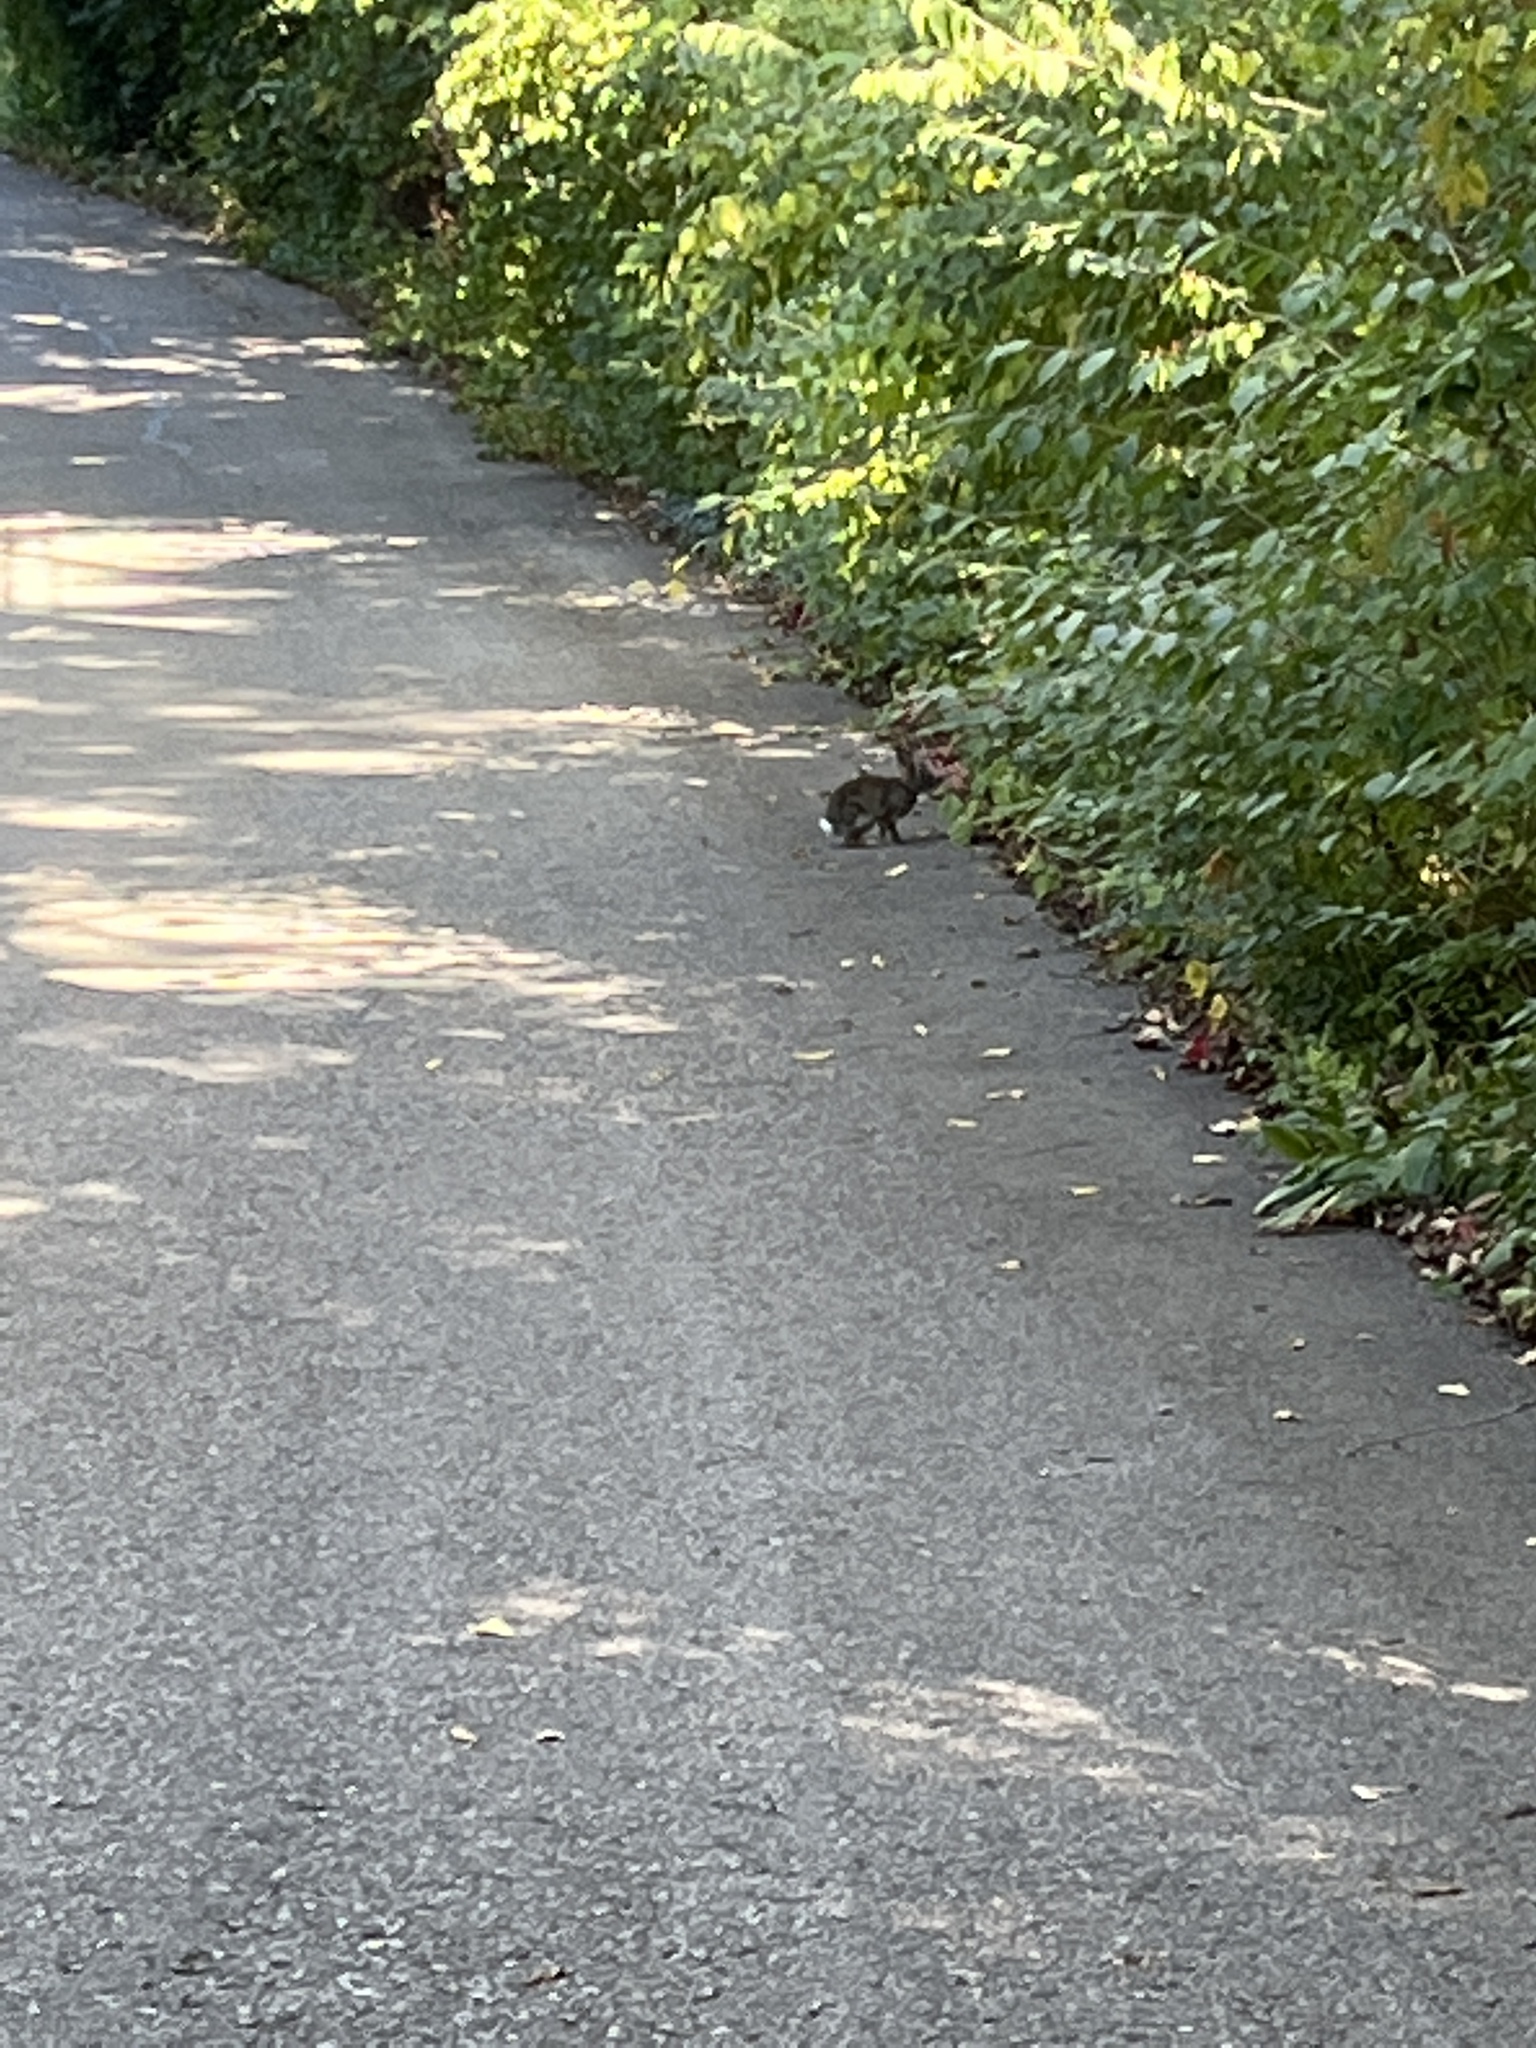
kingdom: Animalia
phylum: Chordata
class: Mammalia
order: Lagomorpha
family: Leporidae
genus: Sylvilagus
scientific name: Sylvilagus floridanus
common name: Eastern cottontail
